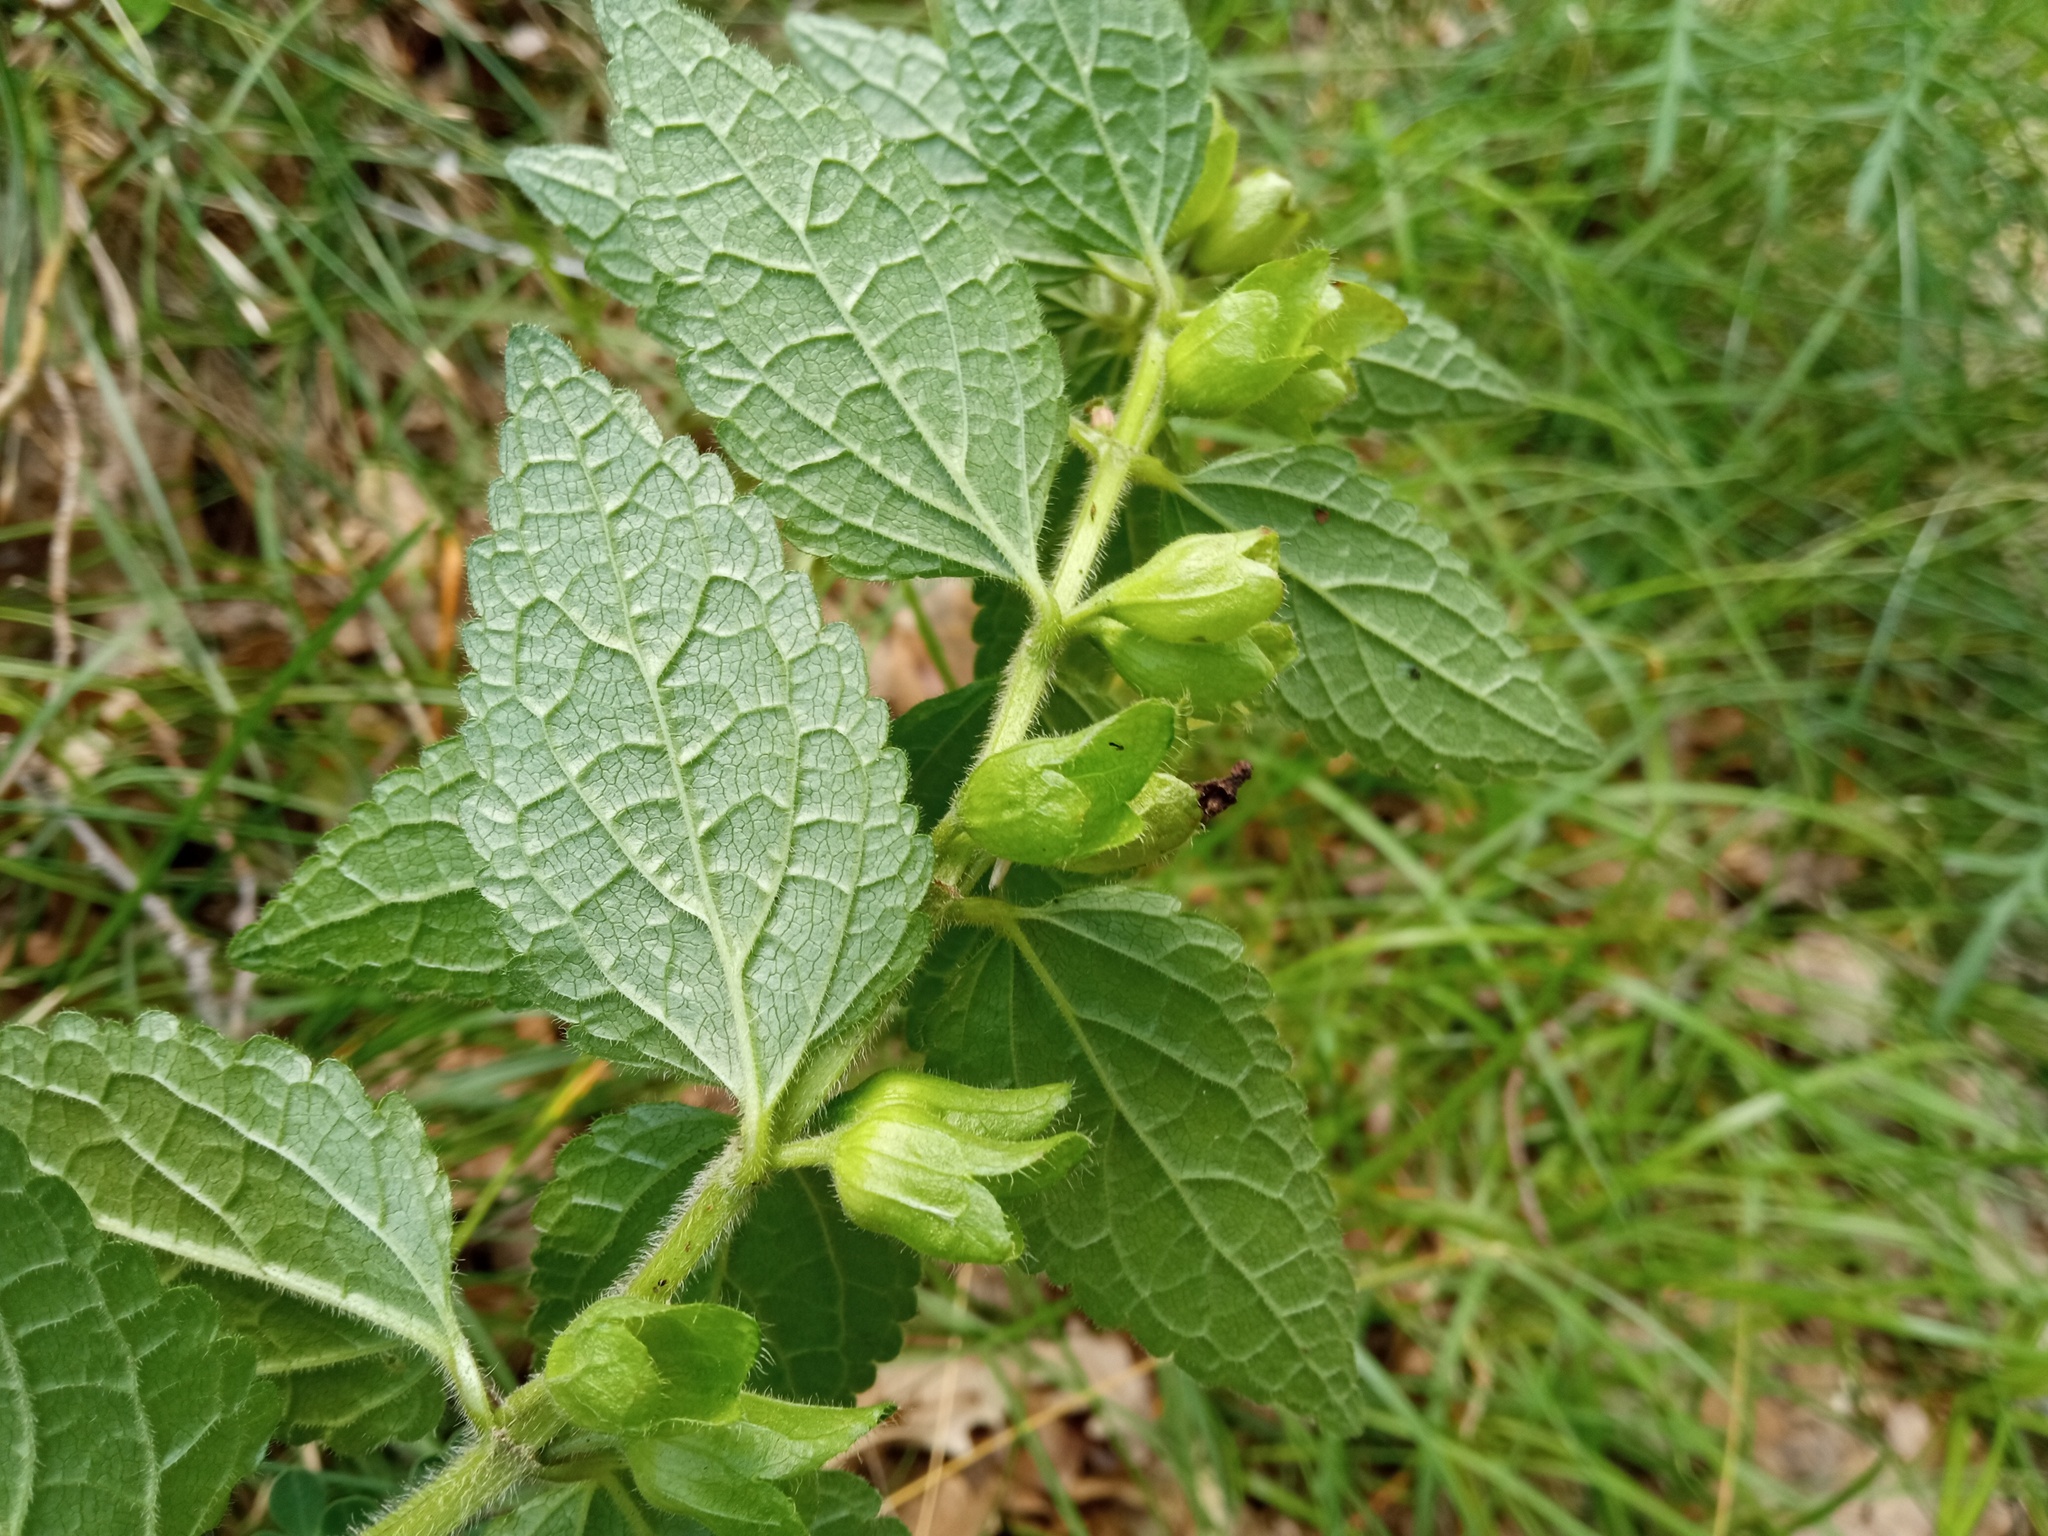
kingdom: Plantae
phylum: Tracheophyta
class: Magnoliopsida
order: Lamiales
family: Lamiaceae
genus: Melittis
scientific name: Melittis melissophyllum
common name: Bastard balm
